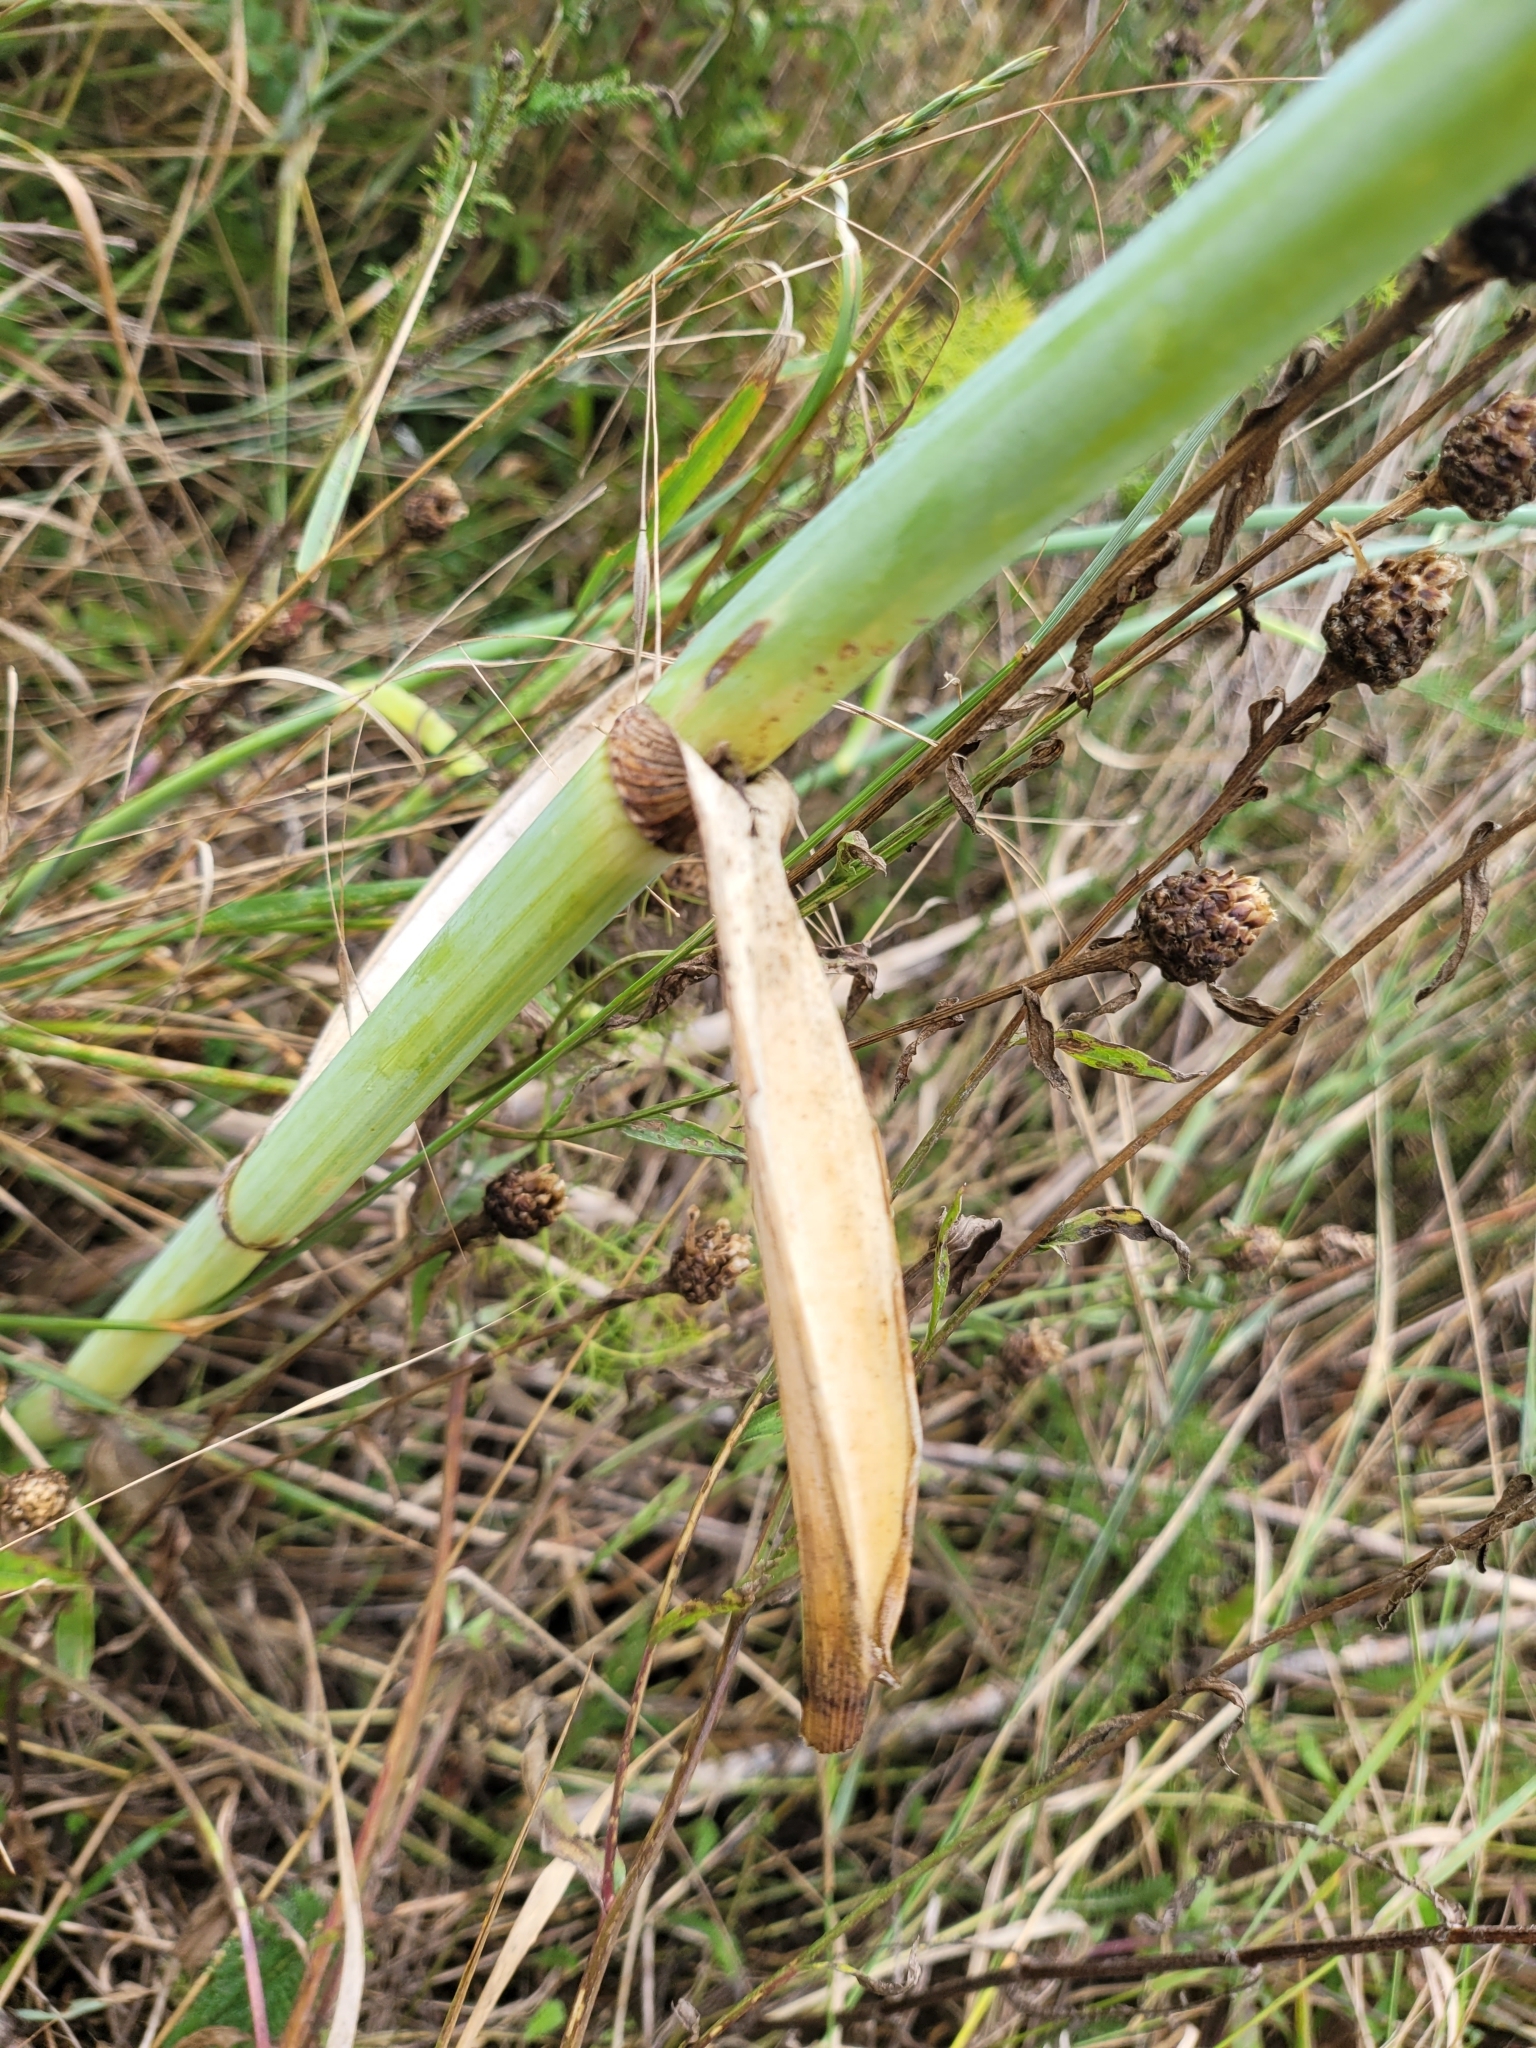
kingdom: Plantae
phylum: Tracheophyta
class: Magnoliopsida
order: Apiales
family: Apiaceae
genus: Foeniculum
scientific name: Foeniculum vulgare
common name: Fennel
